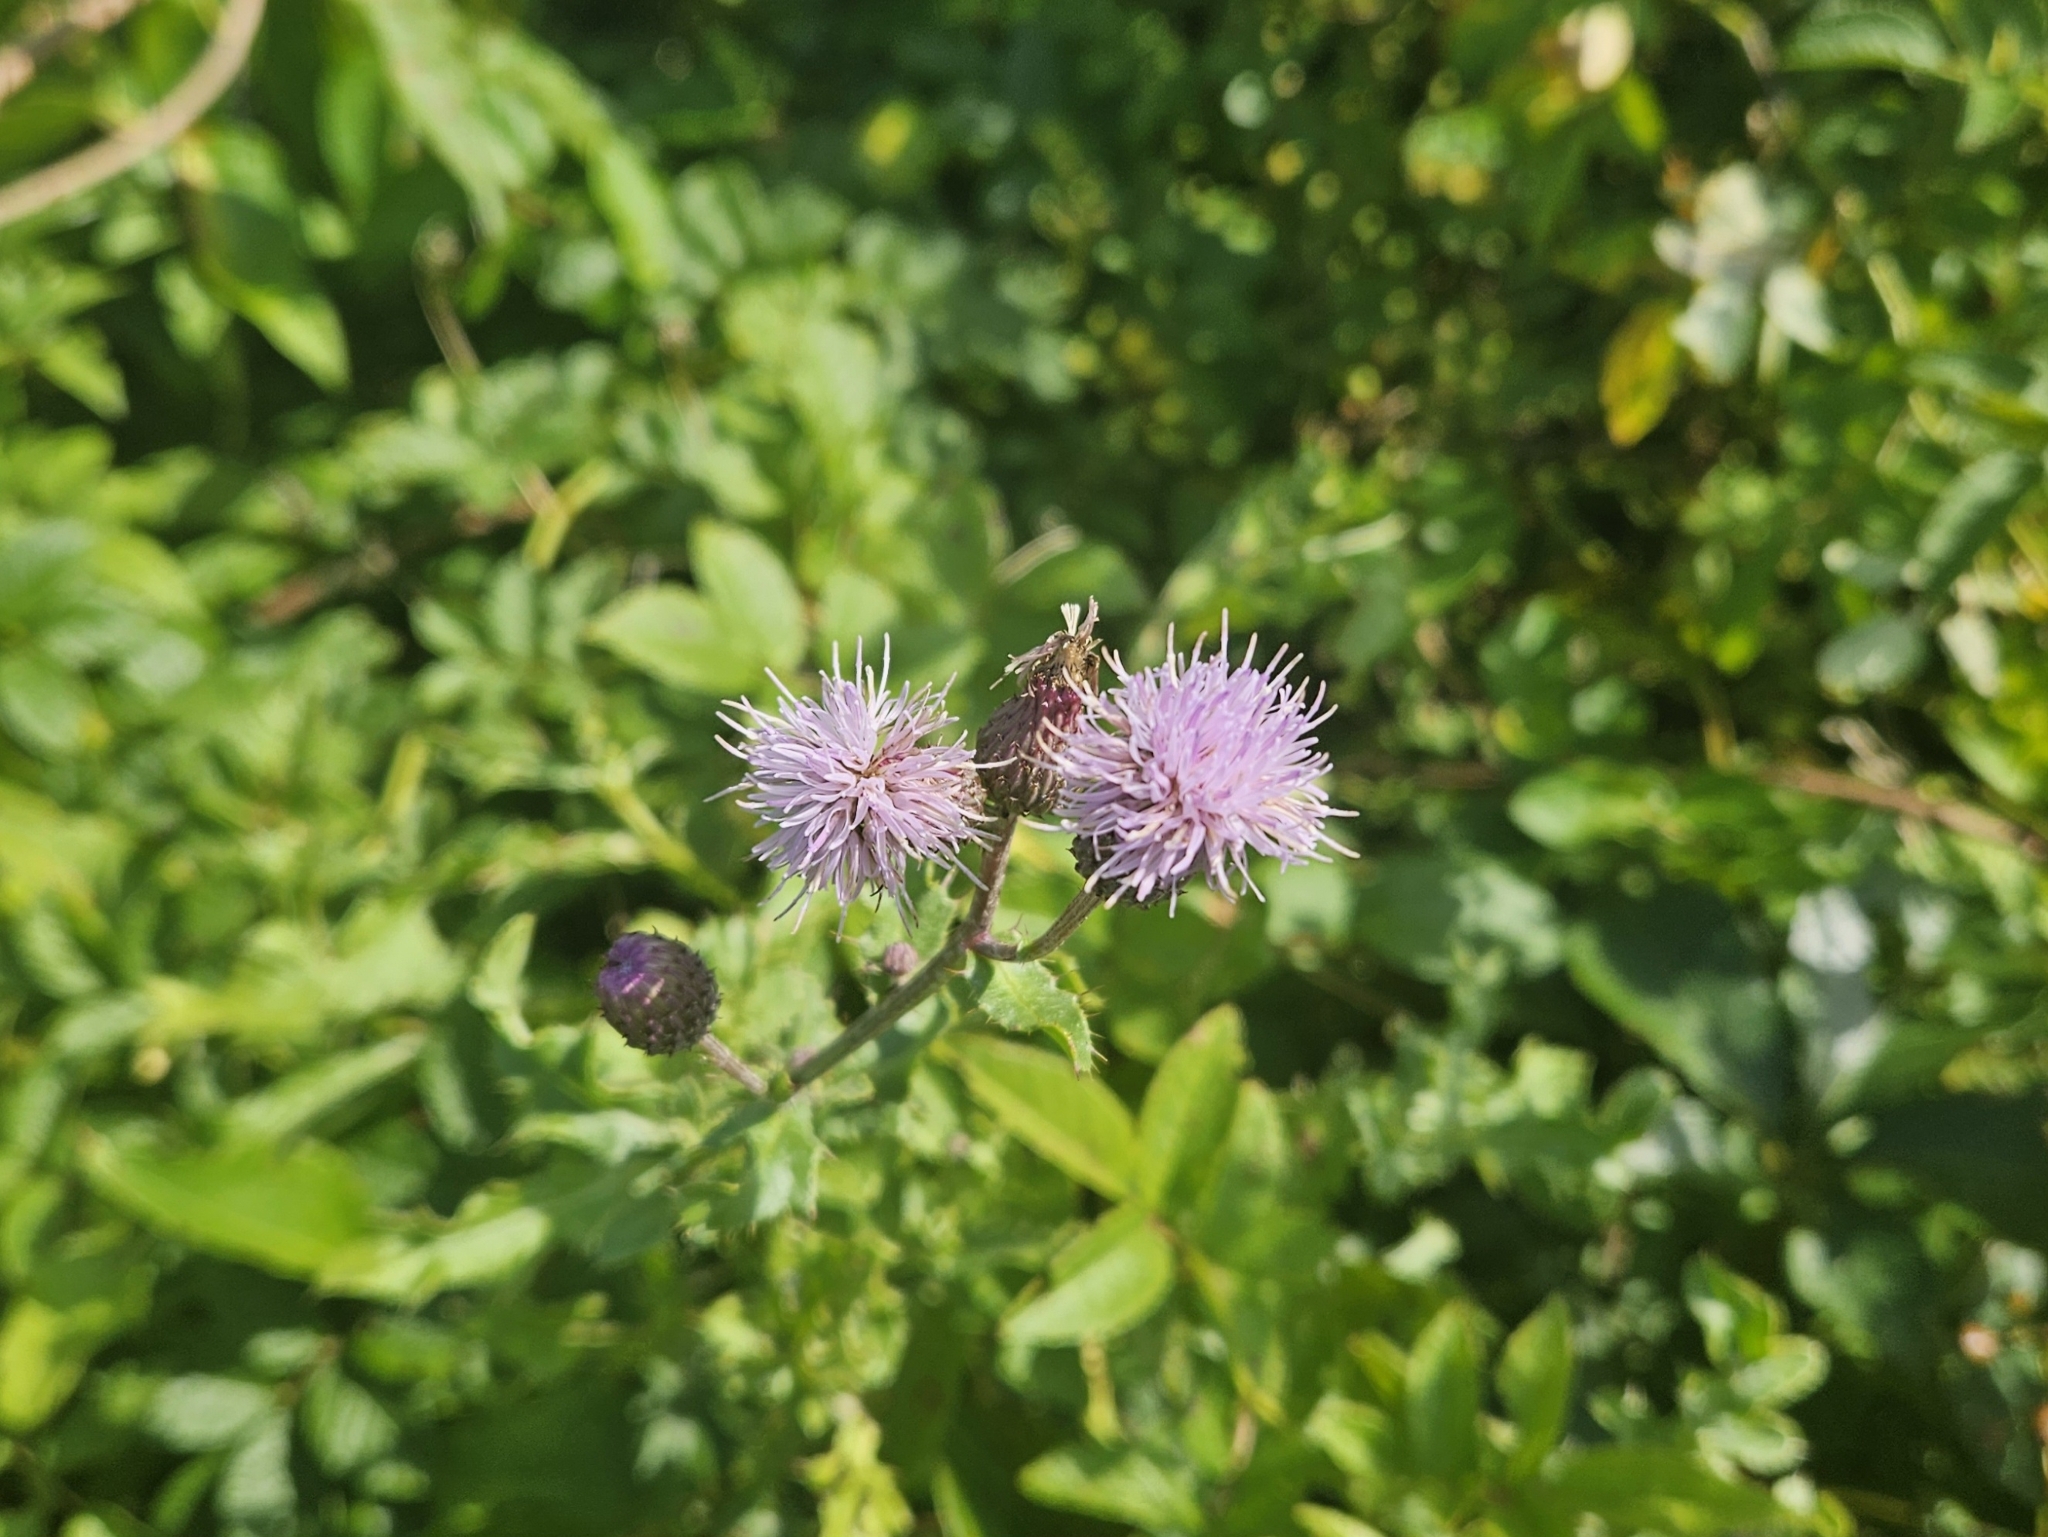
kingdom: Plantae
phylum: Tracheophyta
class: Magnoliopsida
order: Asterales
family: Asteraceae
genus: Cirsium
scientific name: Cirsium arvense
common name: Creeping thistle
